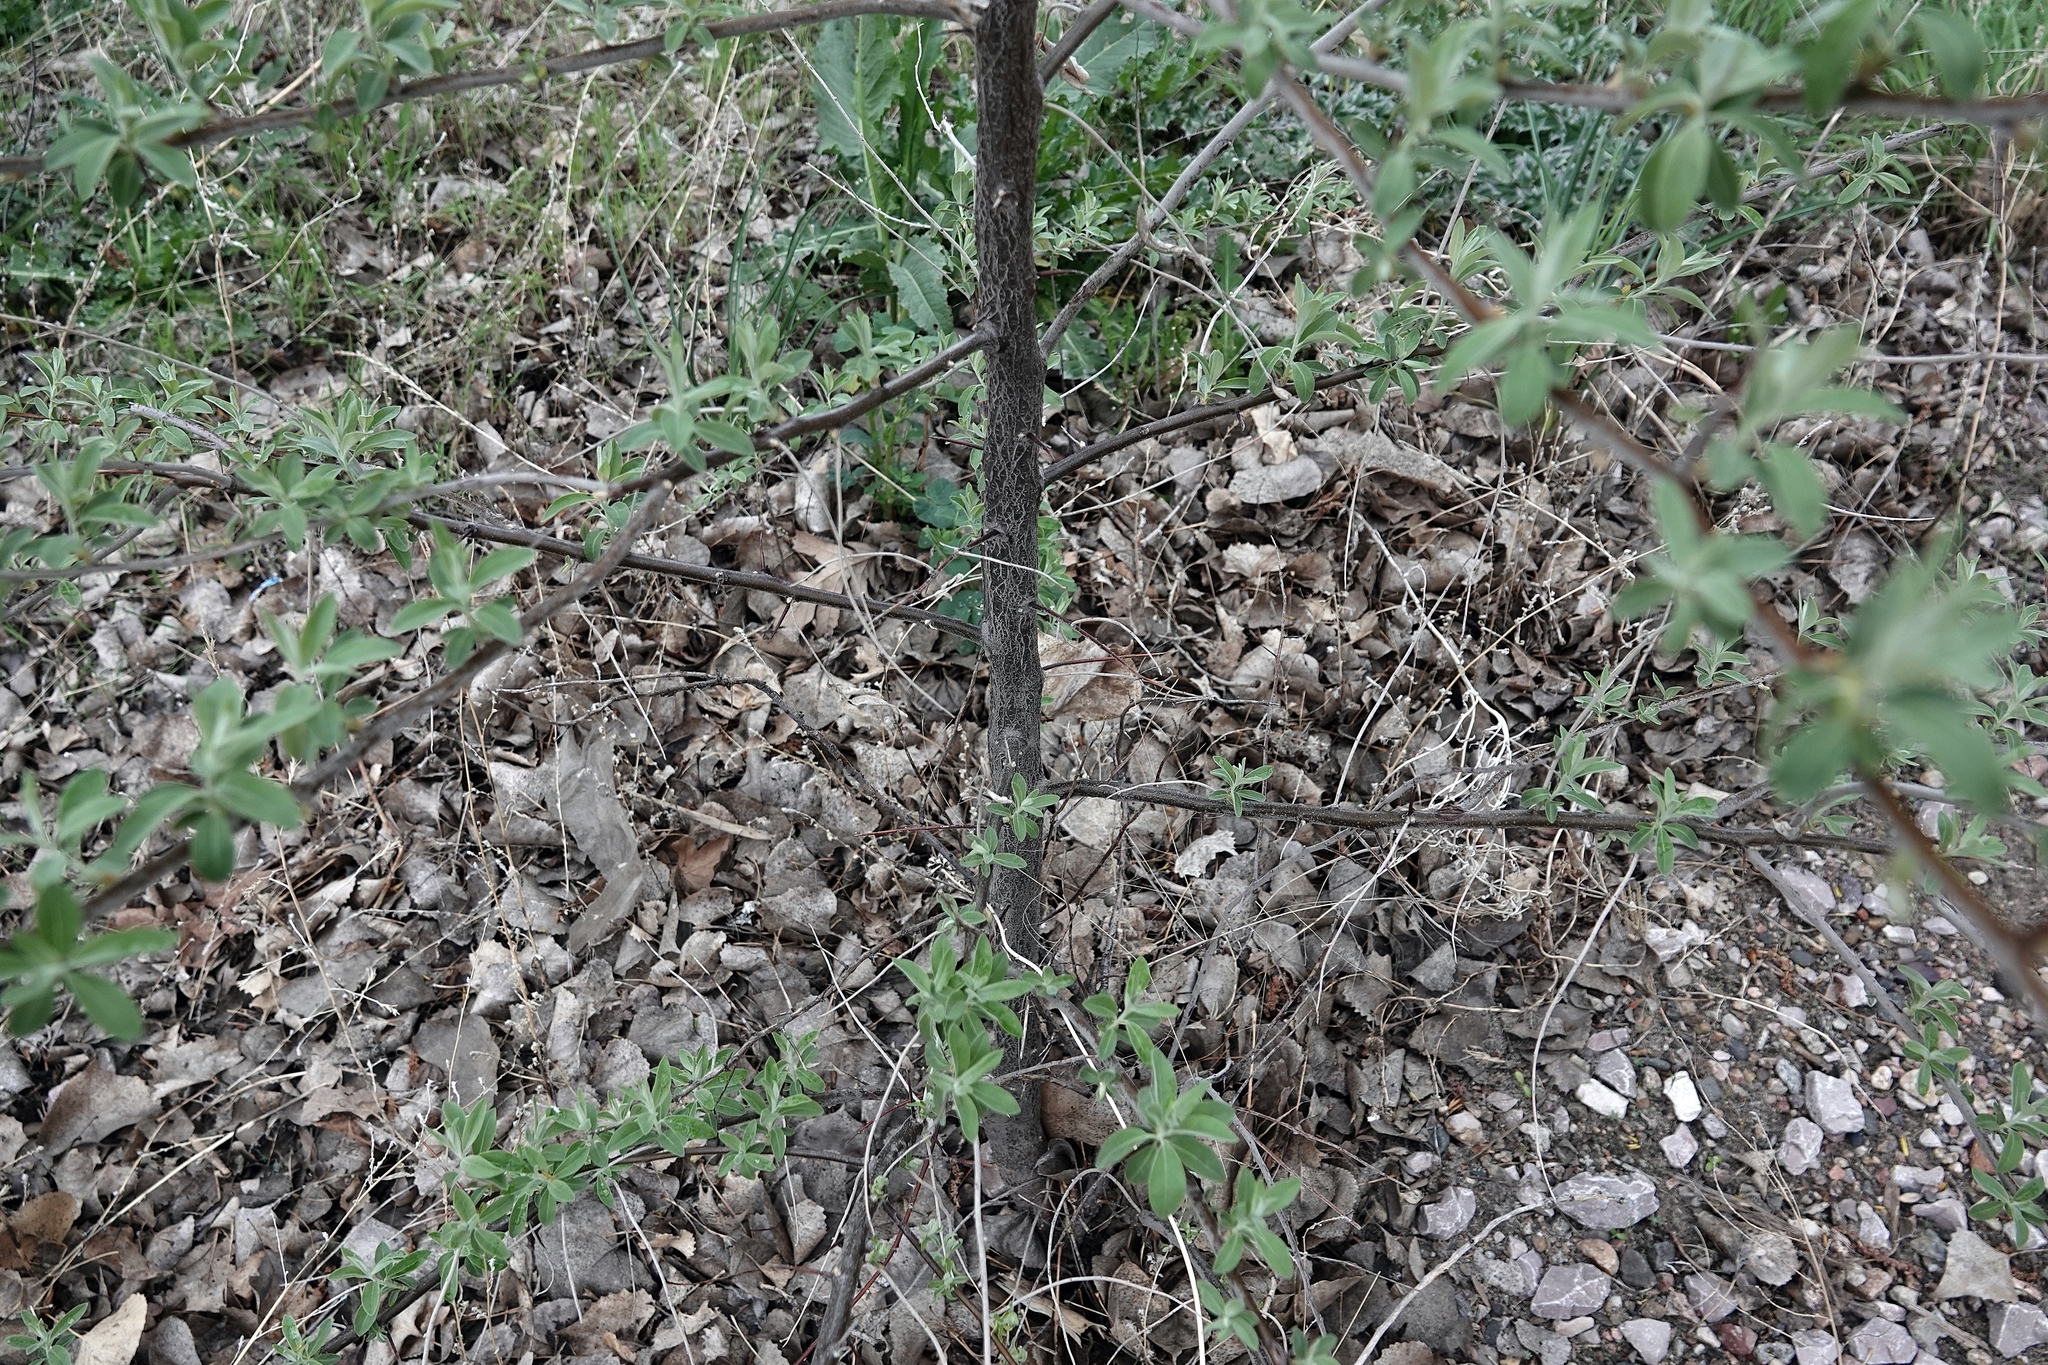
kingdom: Plantae
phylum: Tracheophyta
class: Magnoliopsida
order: Rosales
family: Elaeagnaceae
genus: Elaeagnus
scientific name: Elaeagnus angustifolia
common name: Russian olive
